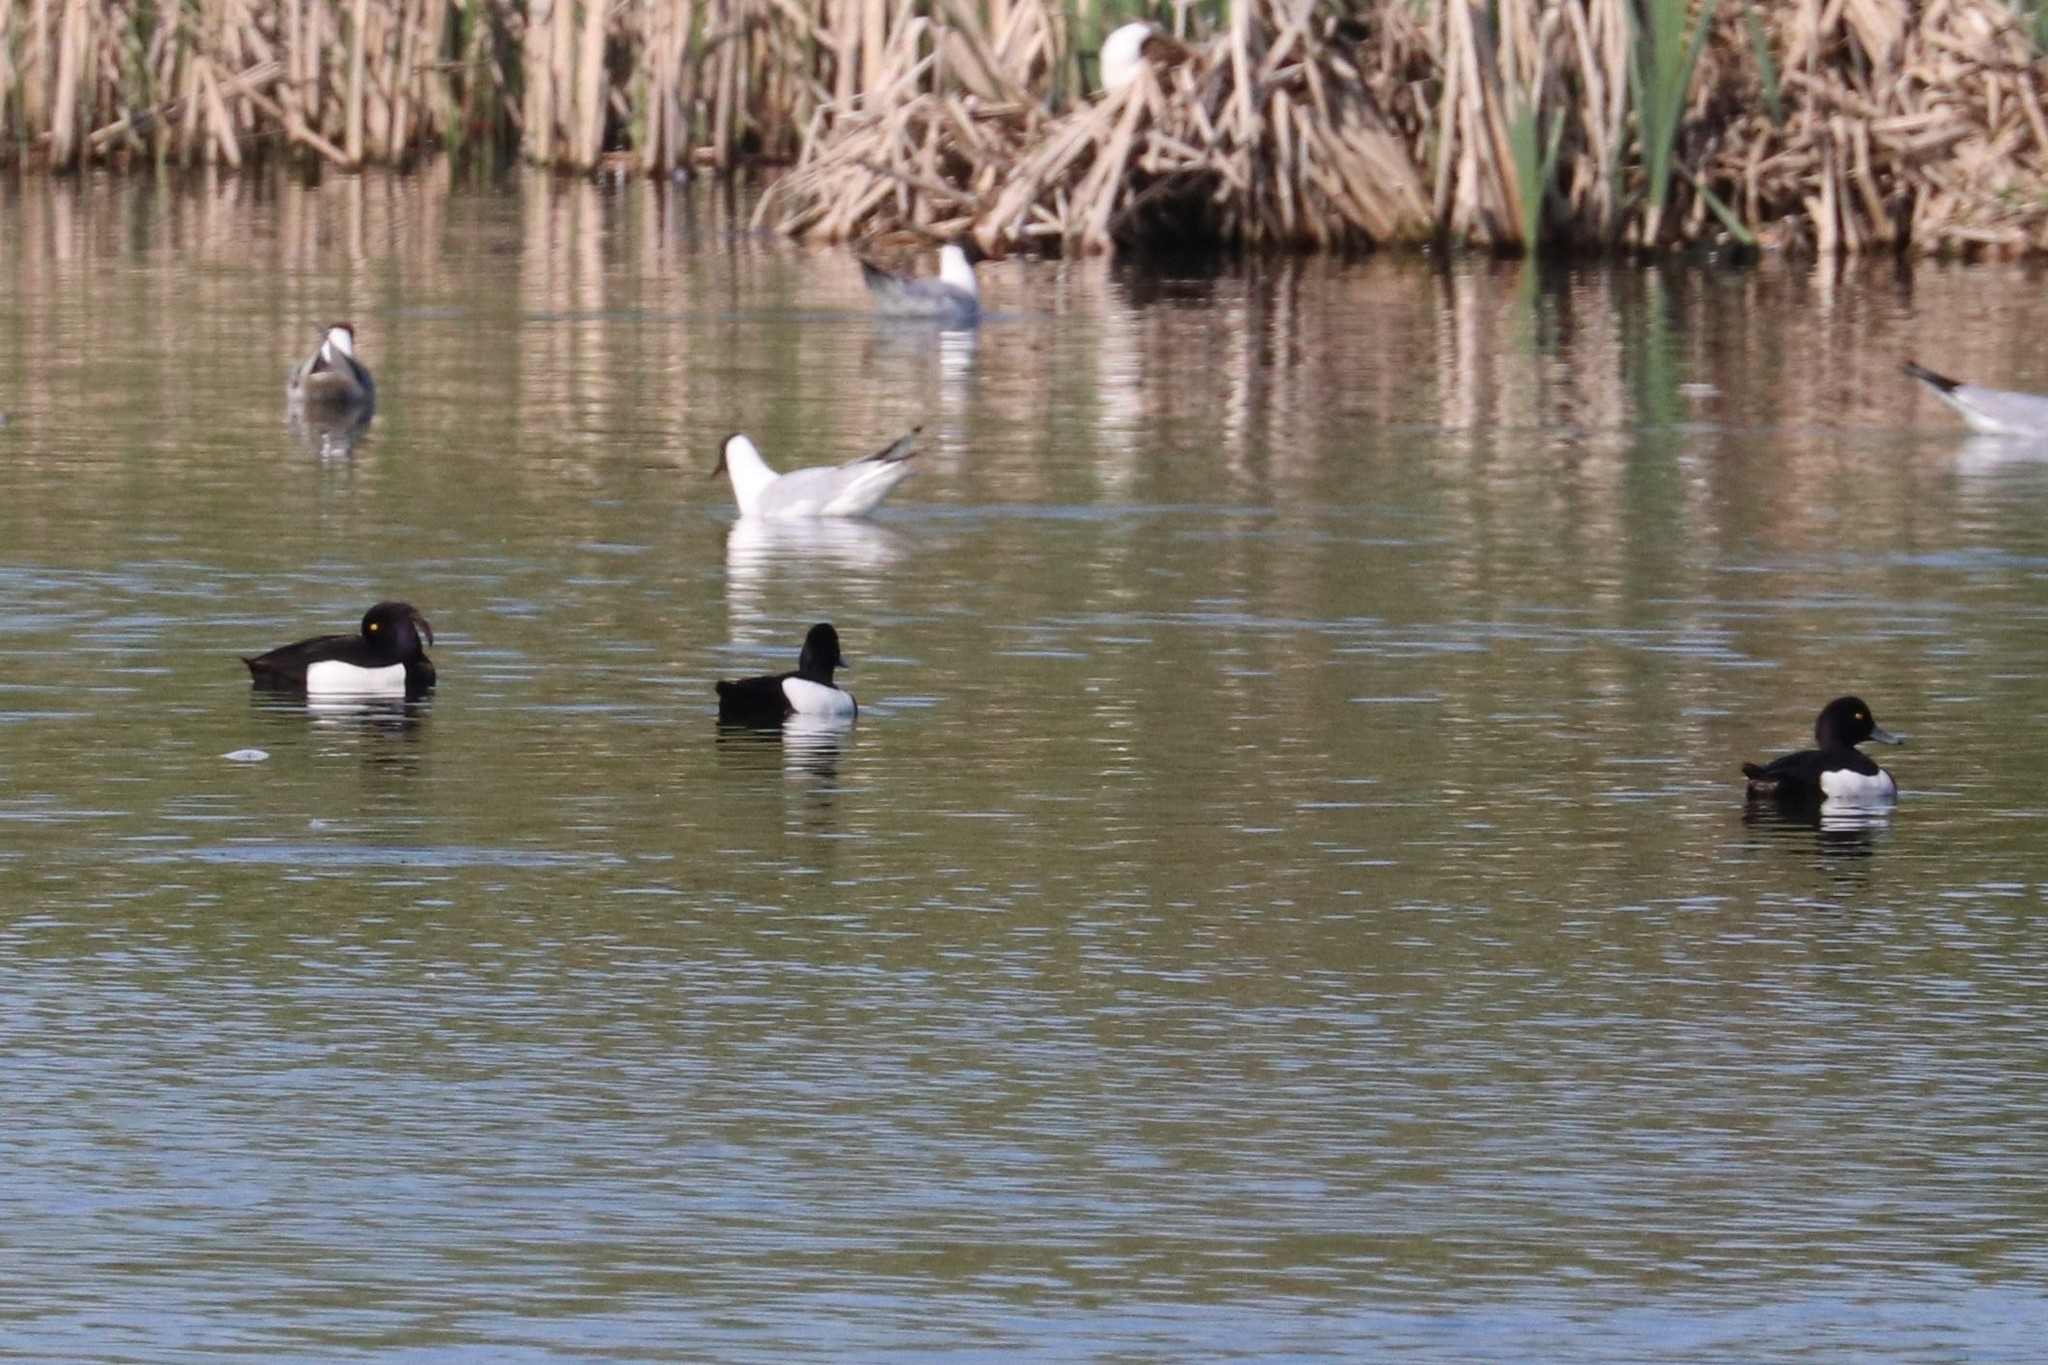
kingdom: Animalia
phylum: Chordata
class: Aves
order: Anseriformes
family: Anatidae
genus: Aythya
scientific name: Aythya fuligula
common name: Tufted duck
